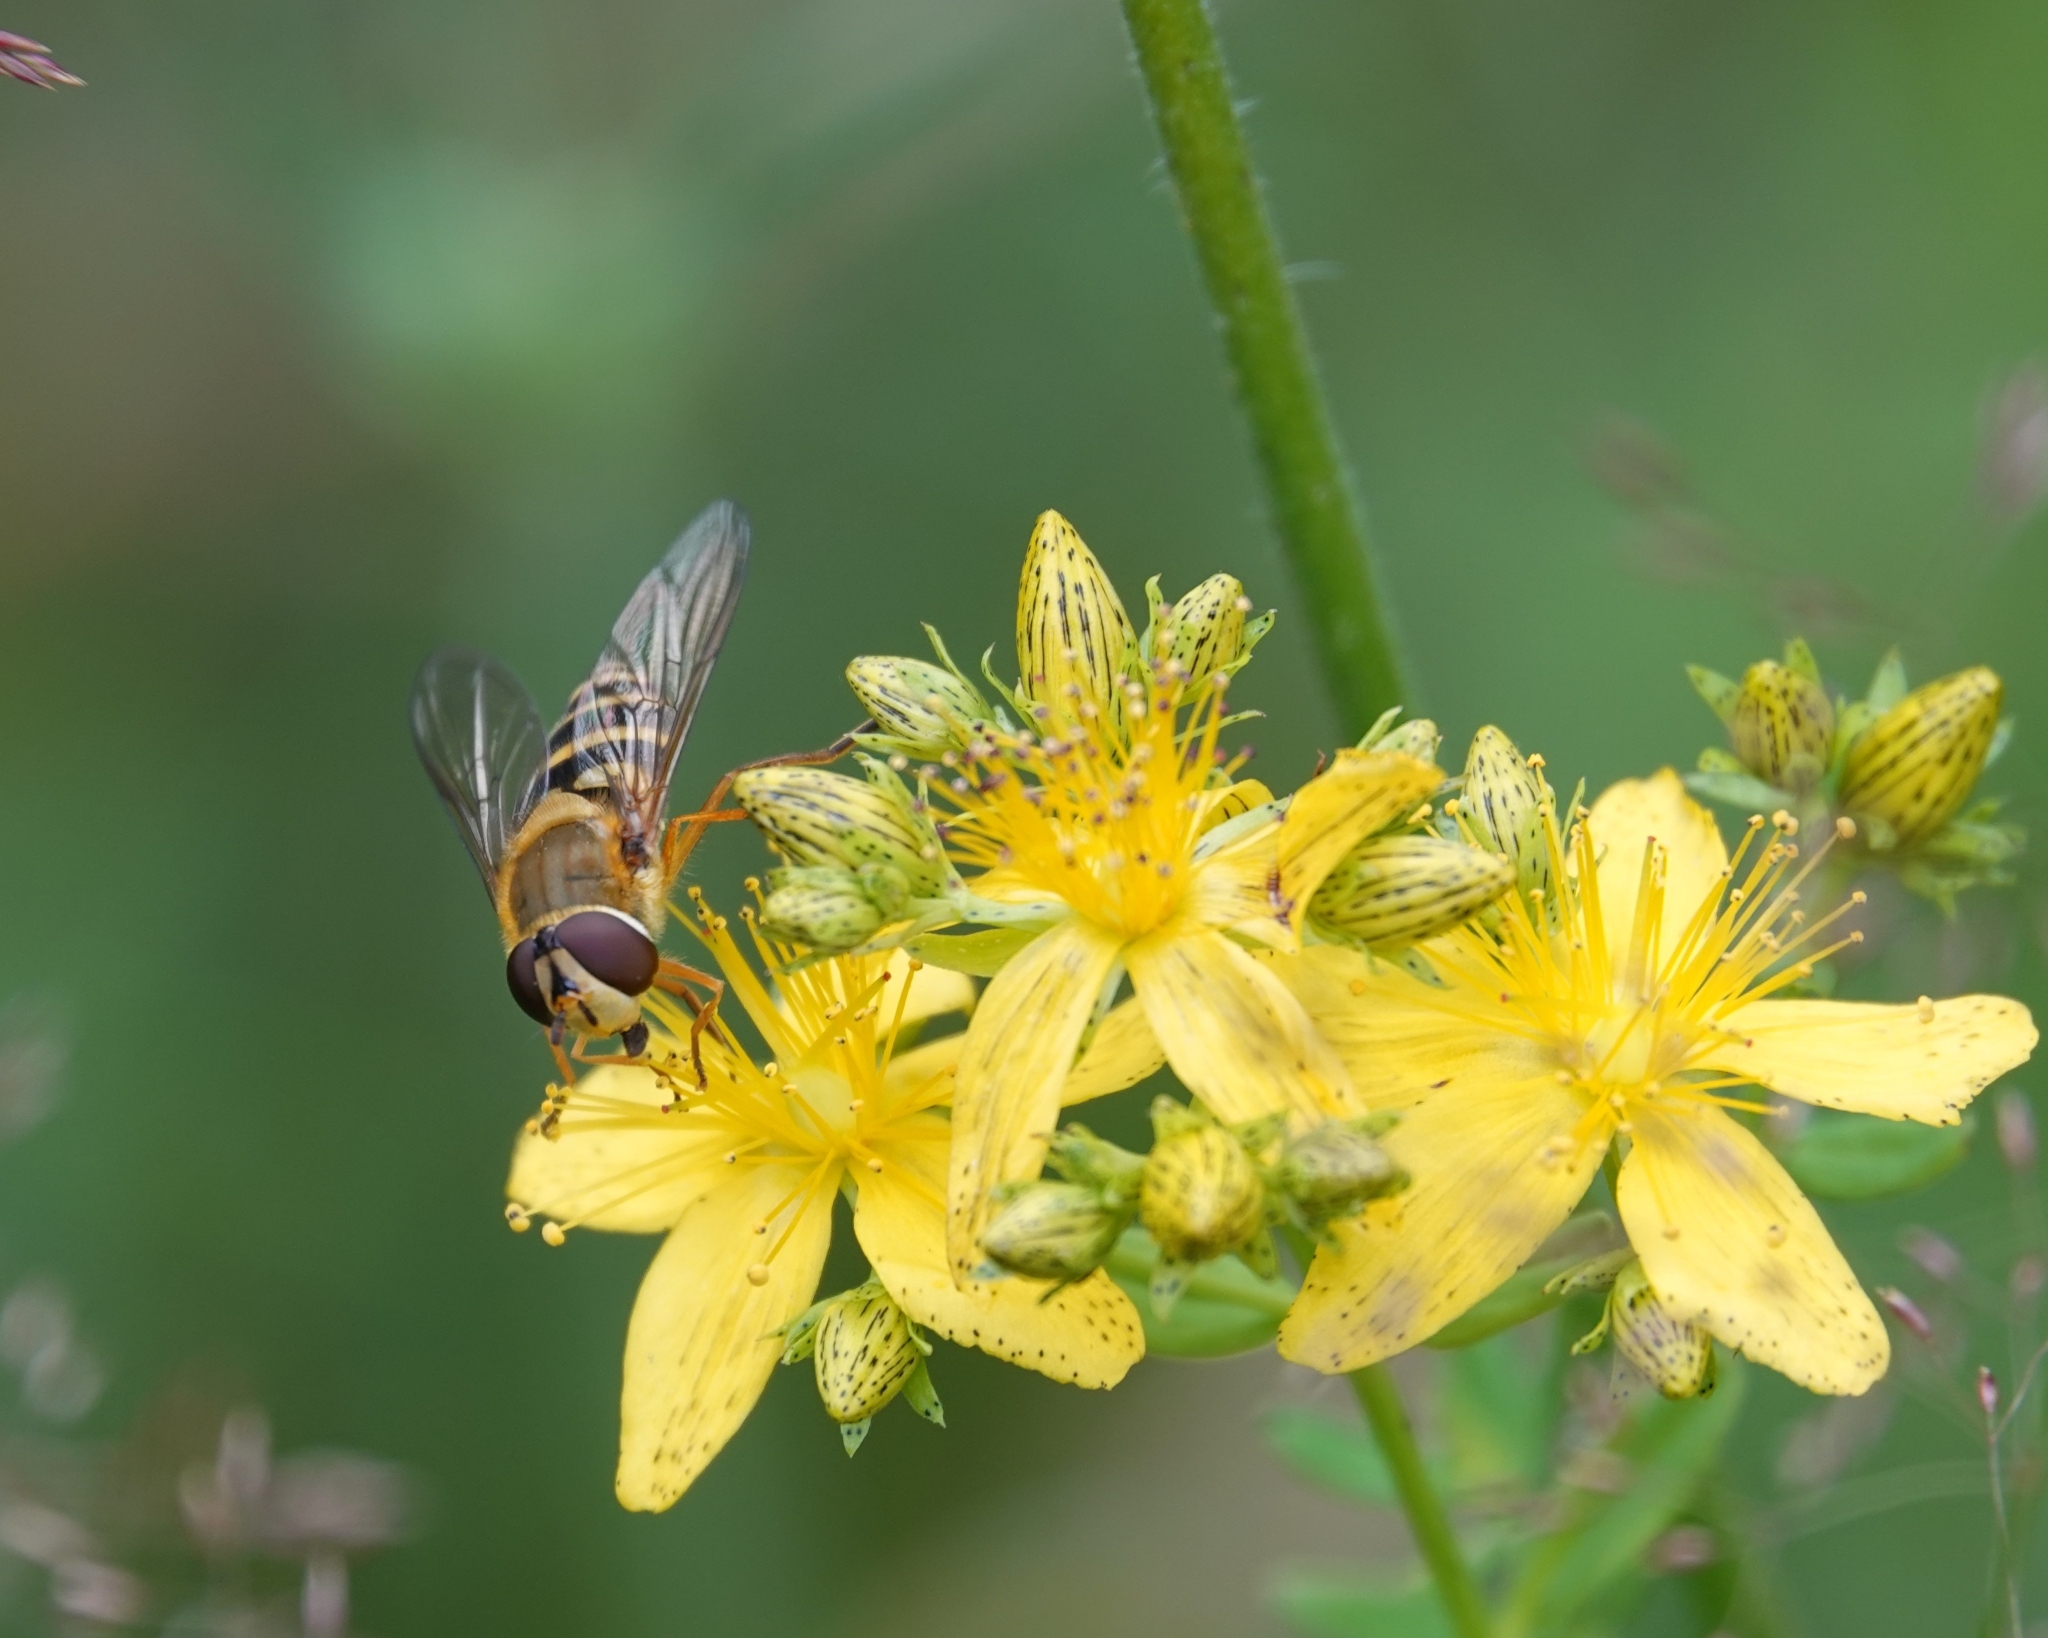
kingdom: Plantae
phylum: Tracheophyta
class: Magnoliopsida
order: Malpighiales
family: Hypericaceae
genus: Hypericum
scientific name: Hypericum perforatum
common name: Common st. johnswort
